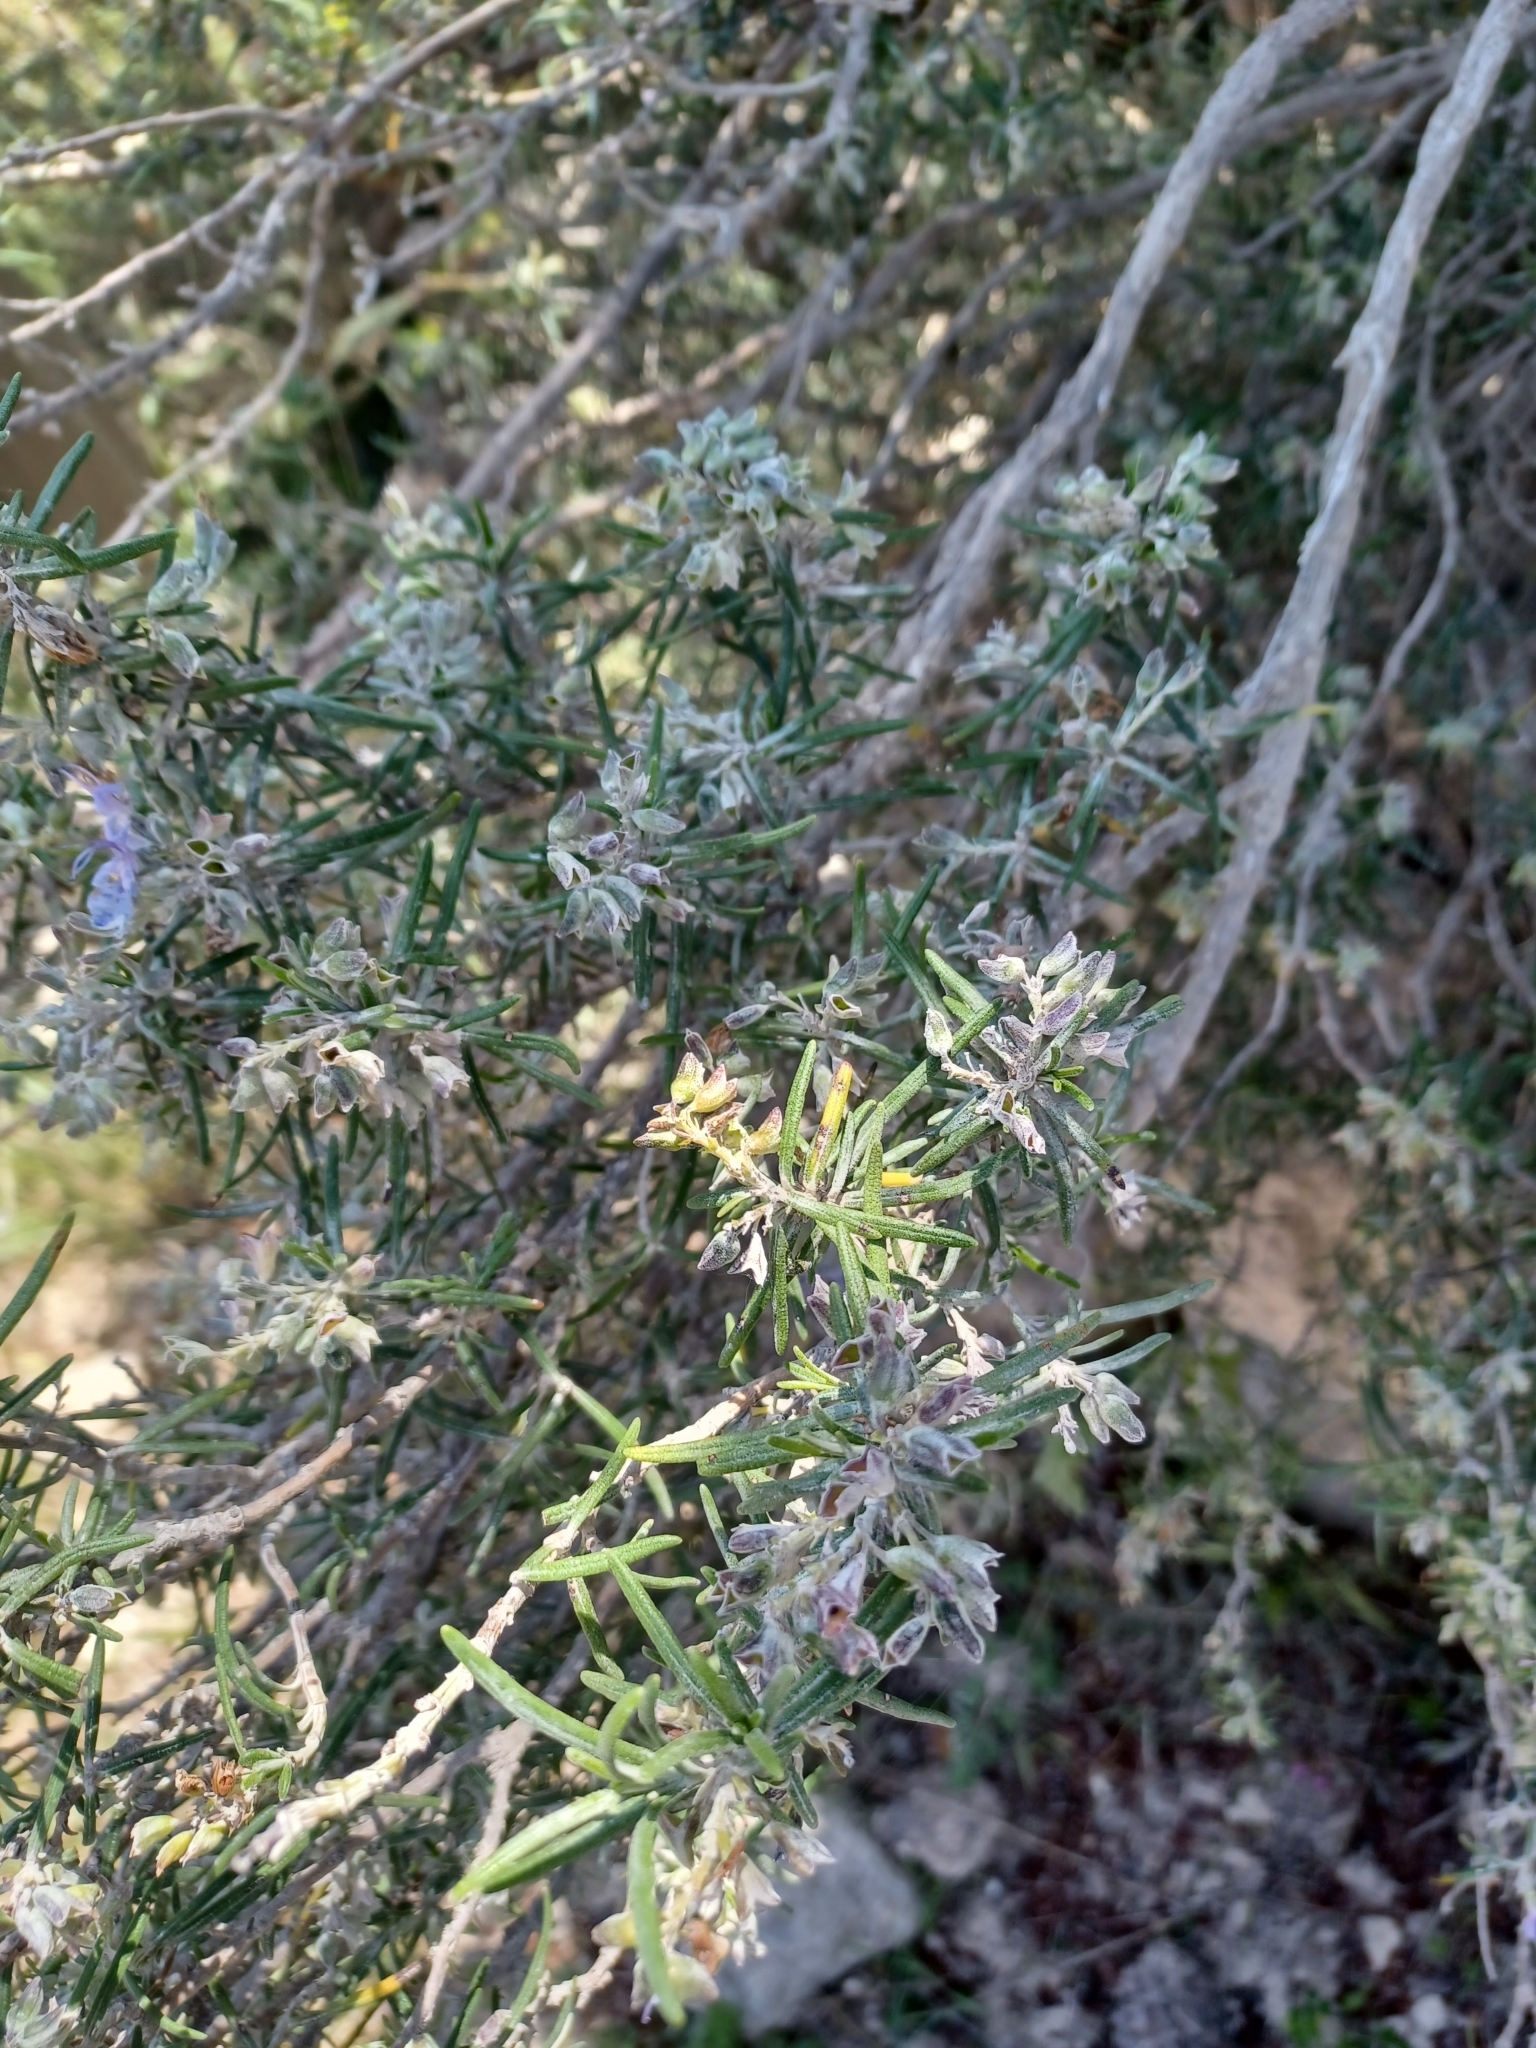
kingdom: Plantae
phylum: Tracheophyta
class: Magnoliopsida
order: Lamiales
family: Lamiaceae
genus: Salvia
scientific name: Salvia rosmarinus
